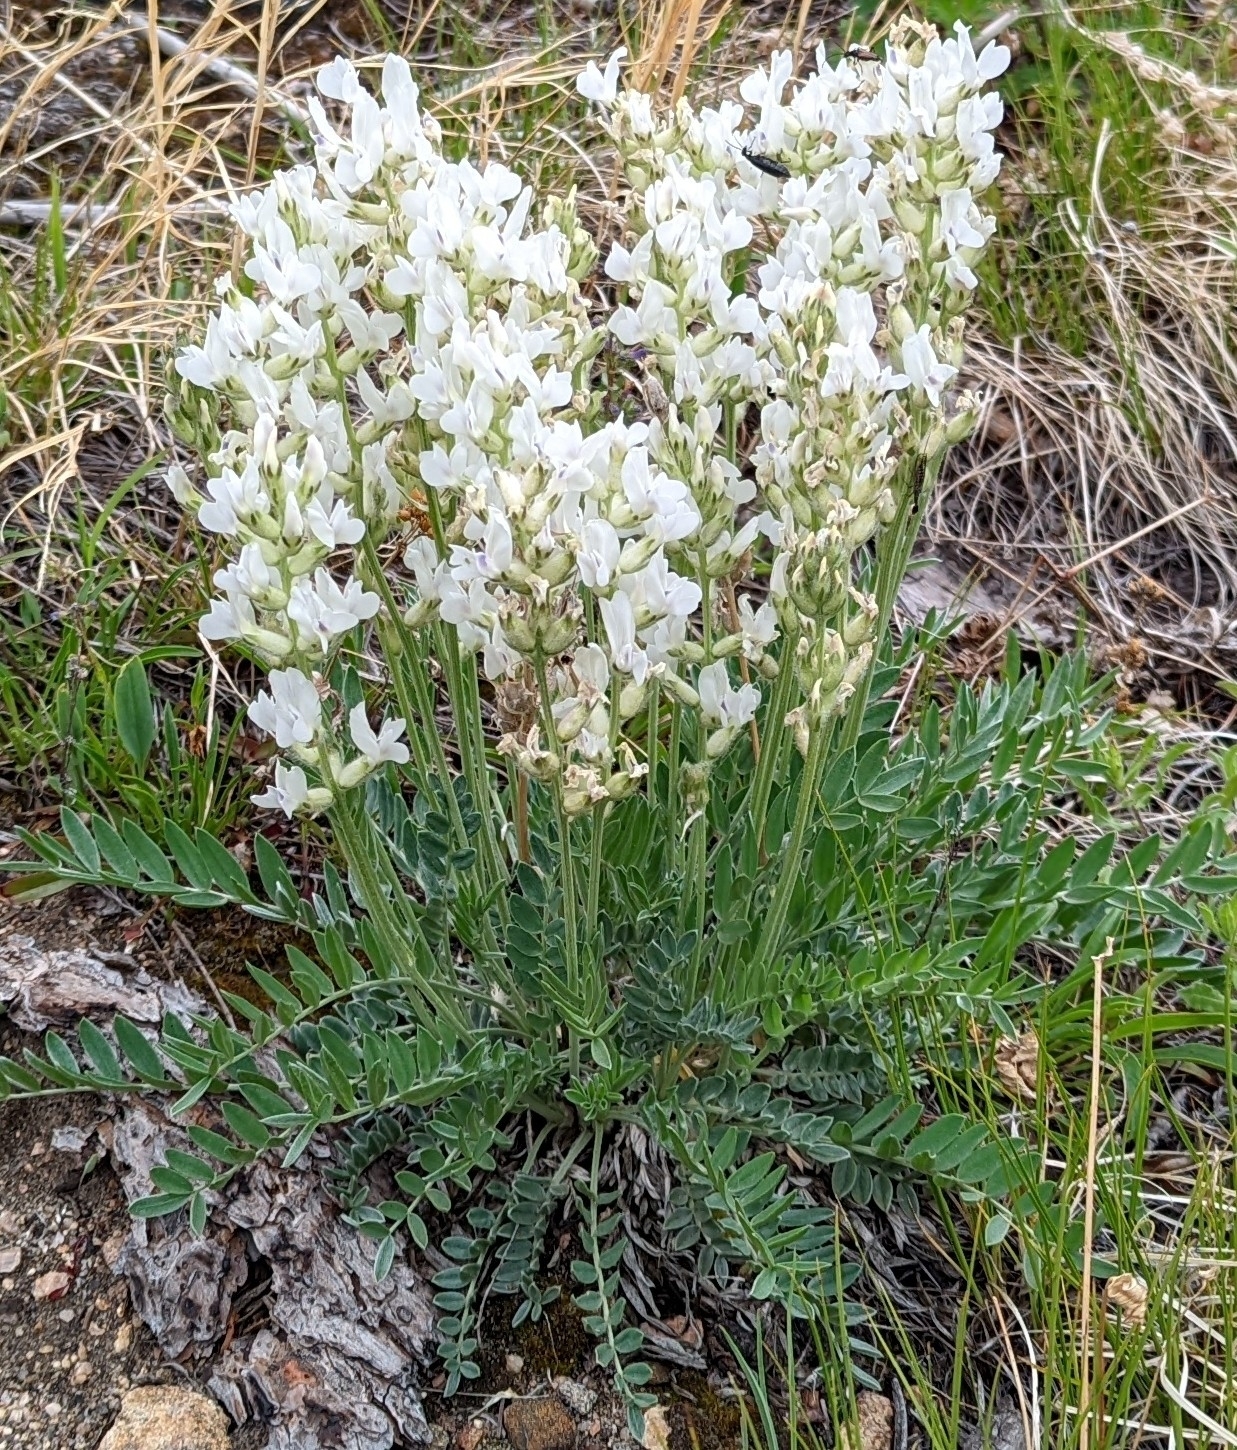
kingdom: Plantae
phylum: Tracheophyta
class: Magnoliopsida
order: Fabales
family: Fabaceae
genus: Oxytropis
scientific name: Oxytropis sericea
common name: Silky locoweed
